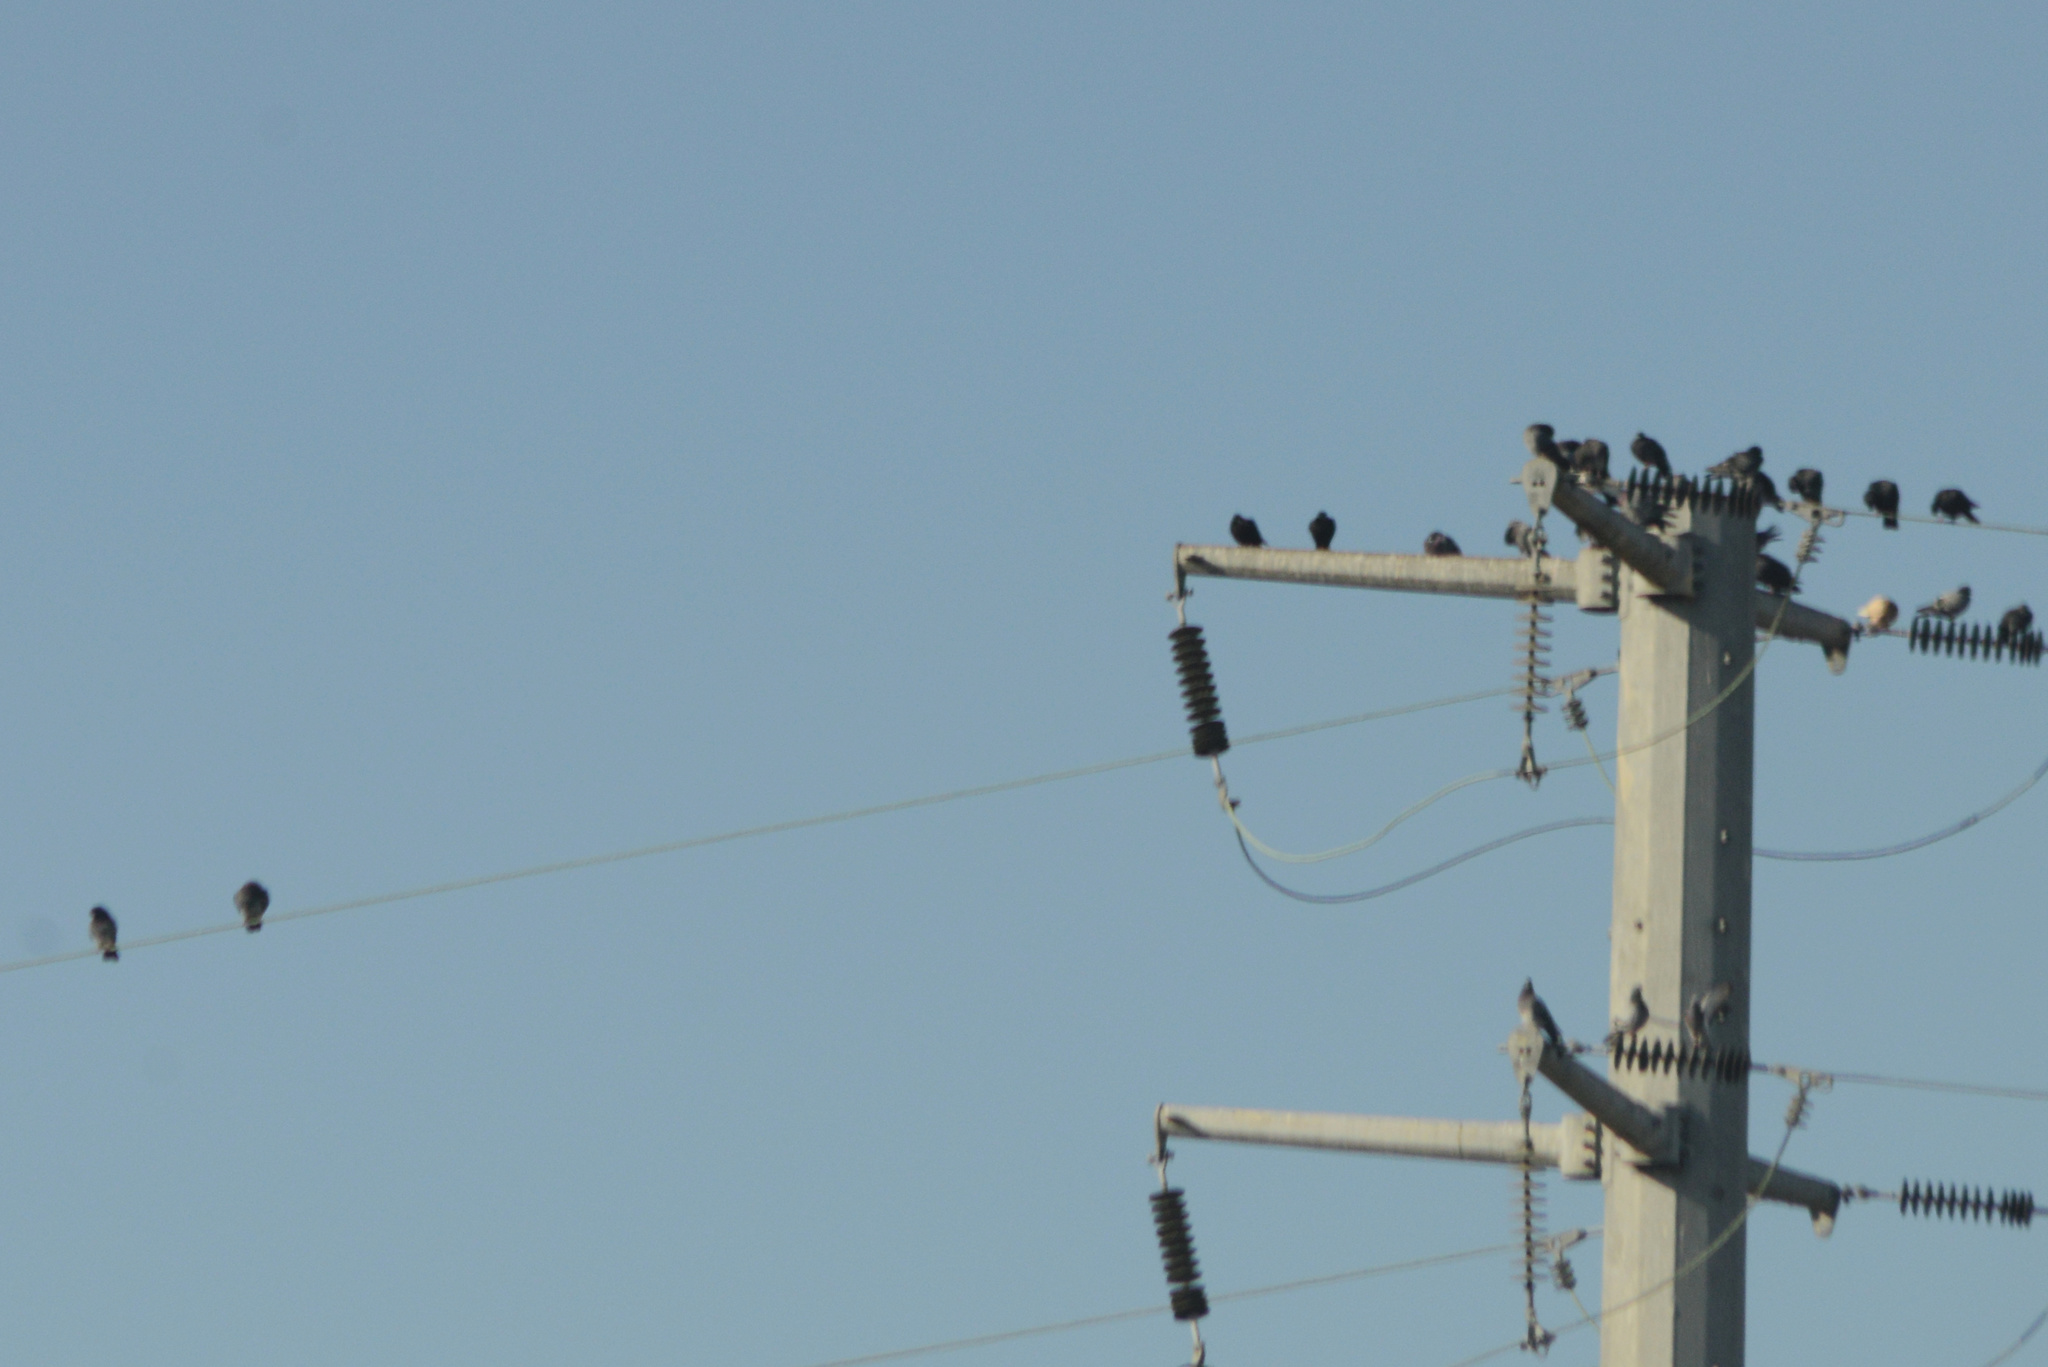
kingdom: Animalia
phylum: Chordata
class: Aves
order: Columbiformes
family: Columbidae
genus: Columba
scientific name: Columba livia
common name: Rock pigeon
